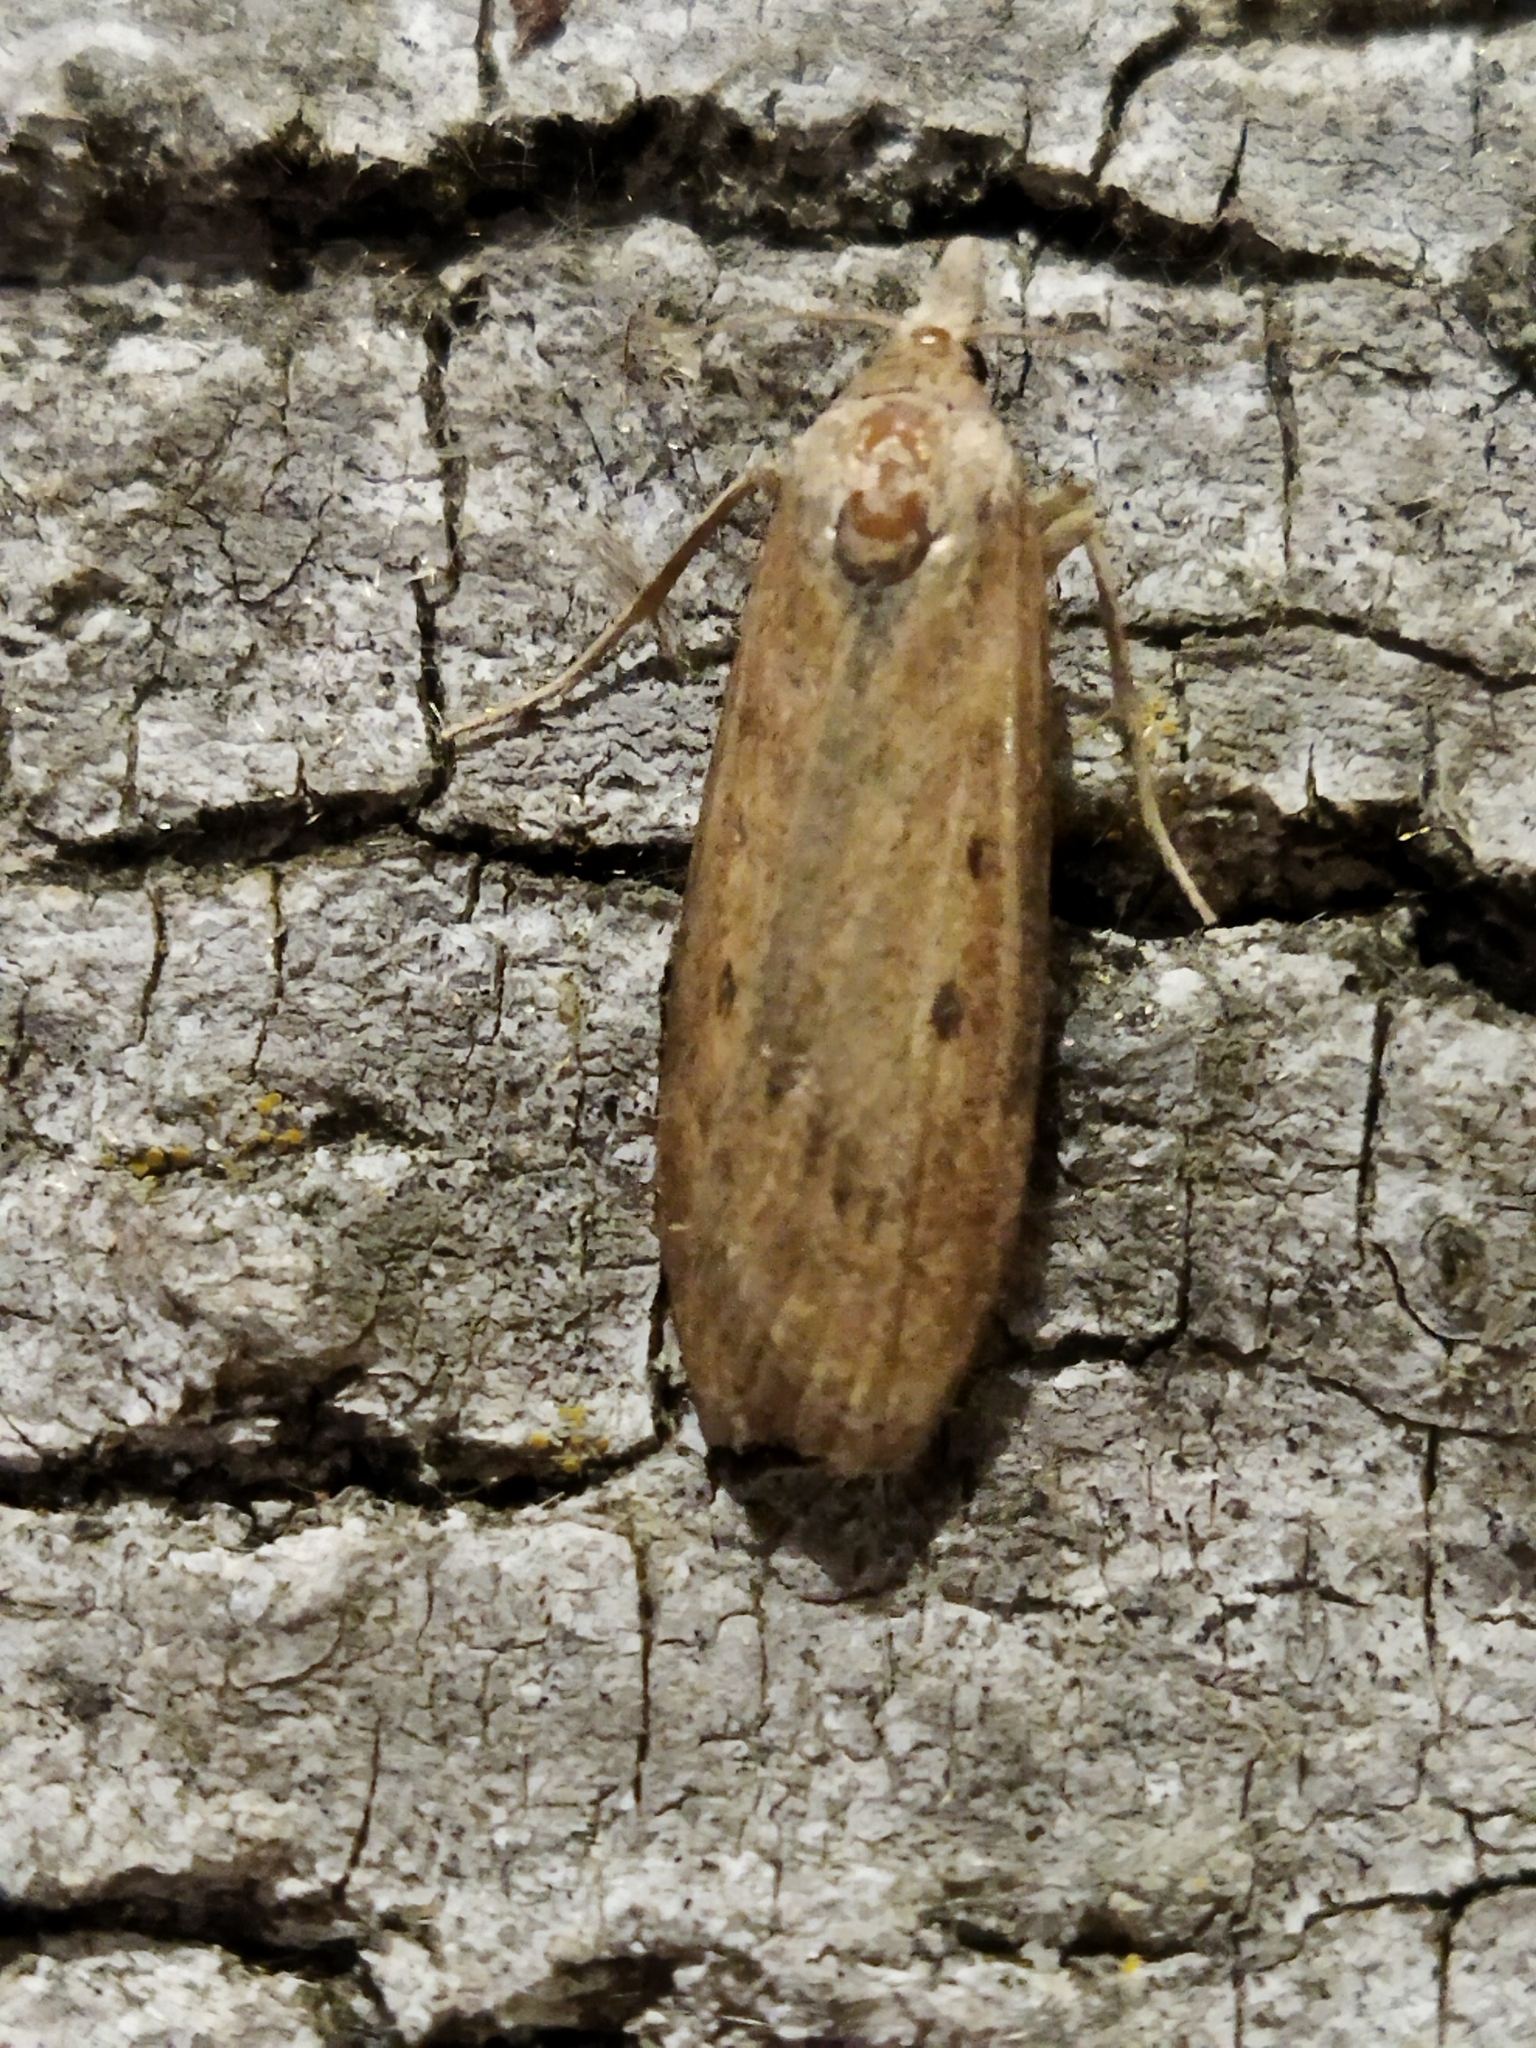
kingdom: Animalia
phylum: Arthropoda
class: Insecta
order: Lepidoptera
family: Pyralidae
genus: Aphomia
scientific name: Aphomia sociella
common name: Bee moth
